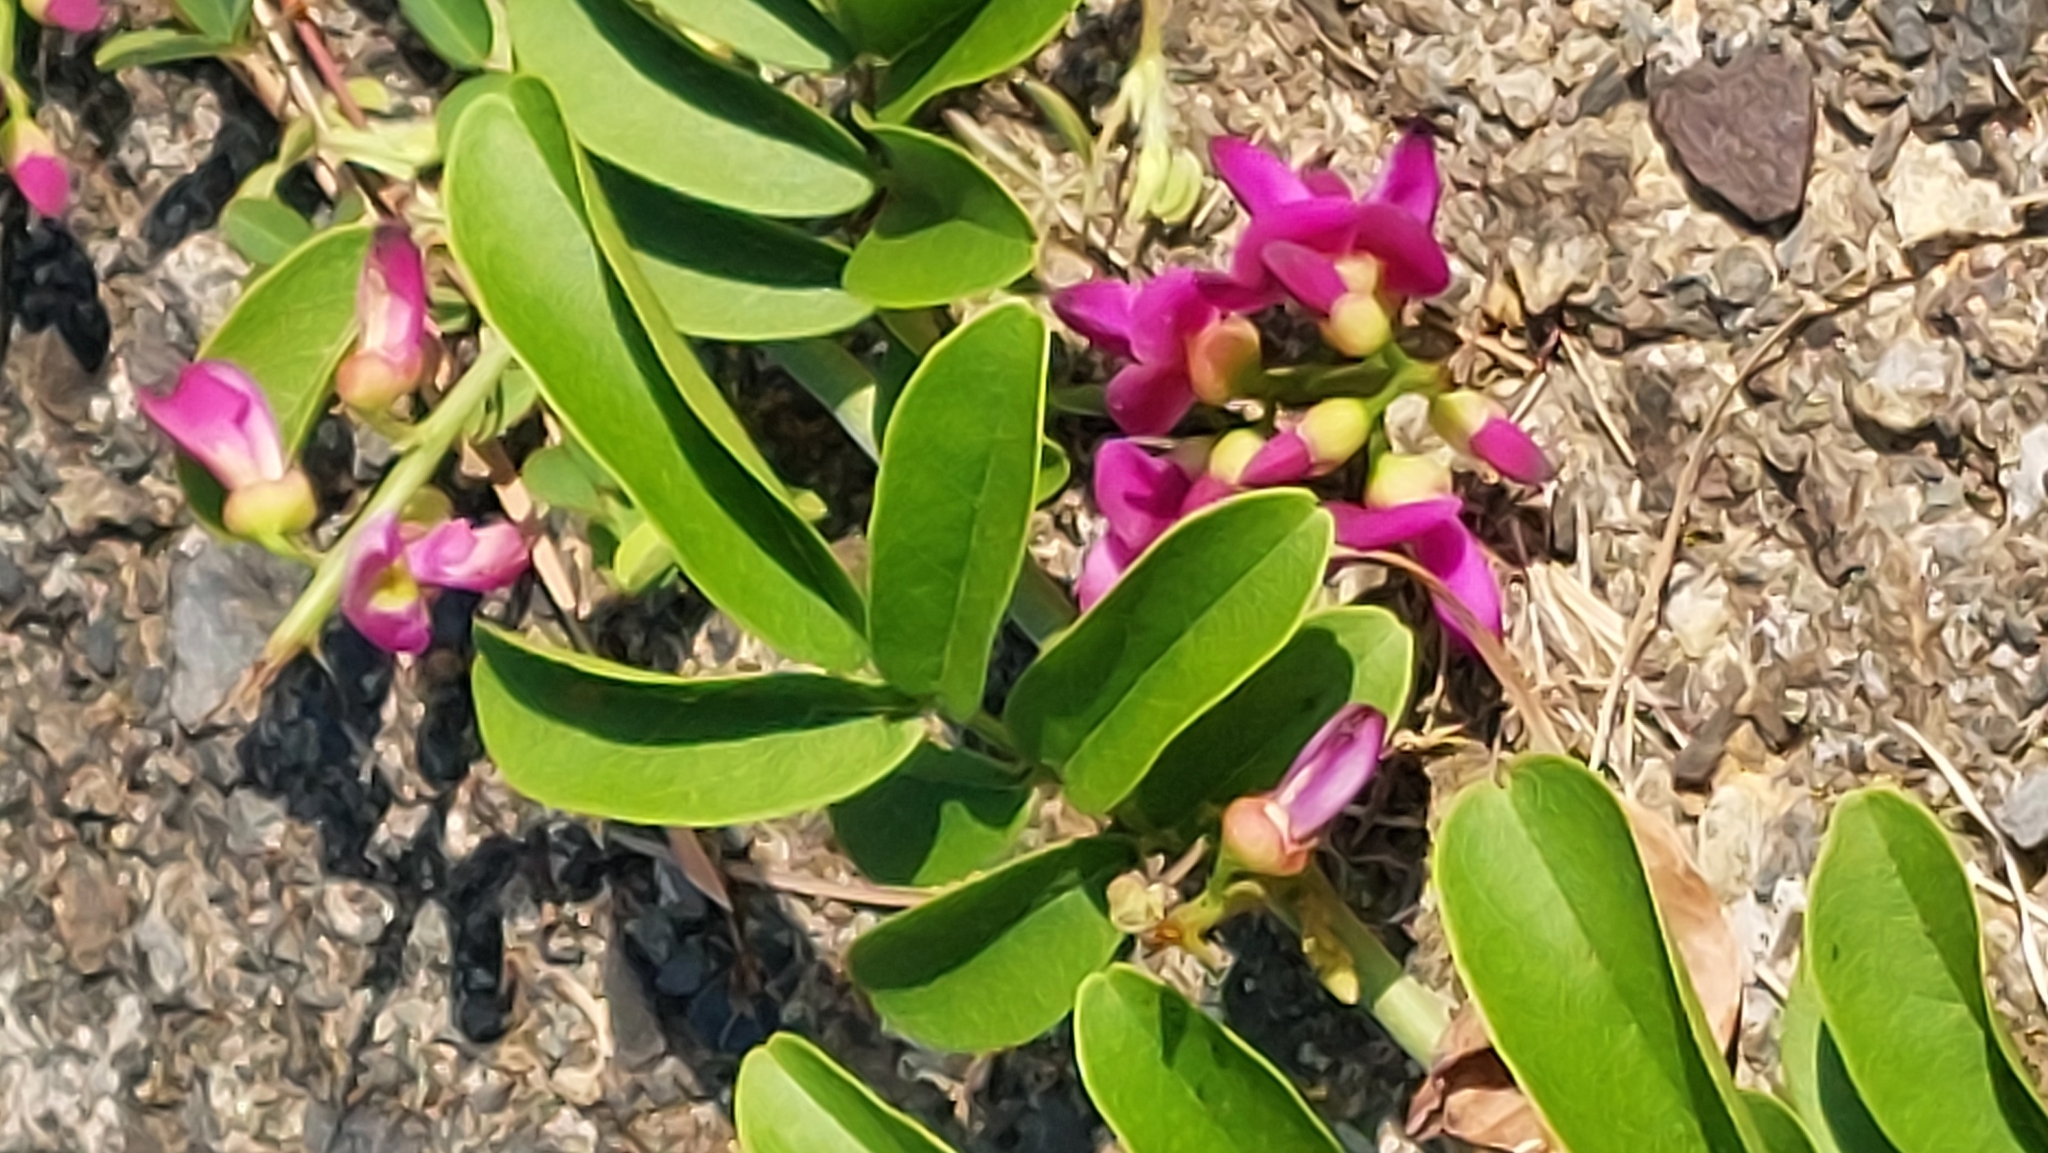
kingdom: Plantae
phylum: Tracheophyta
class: Magnoliopsida
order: Fabales
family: Fabaceae
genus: Wisteriopsis
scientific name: Wisteriopsis reticulata
